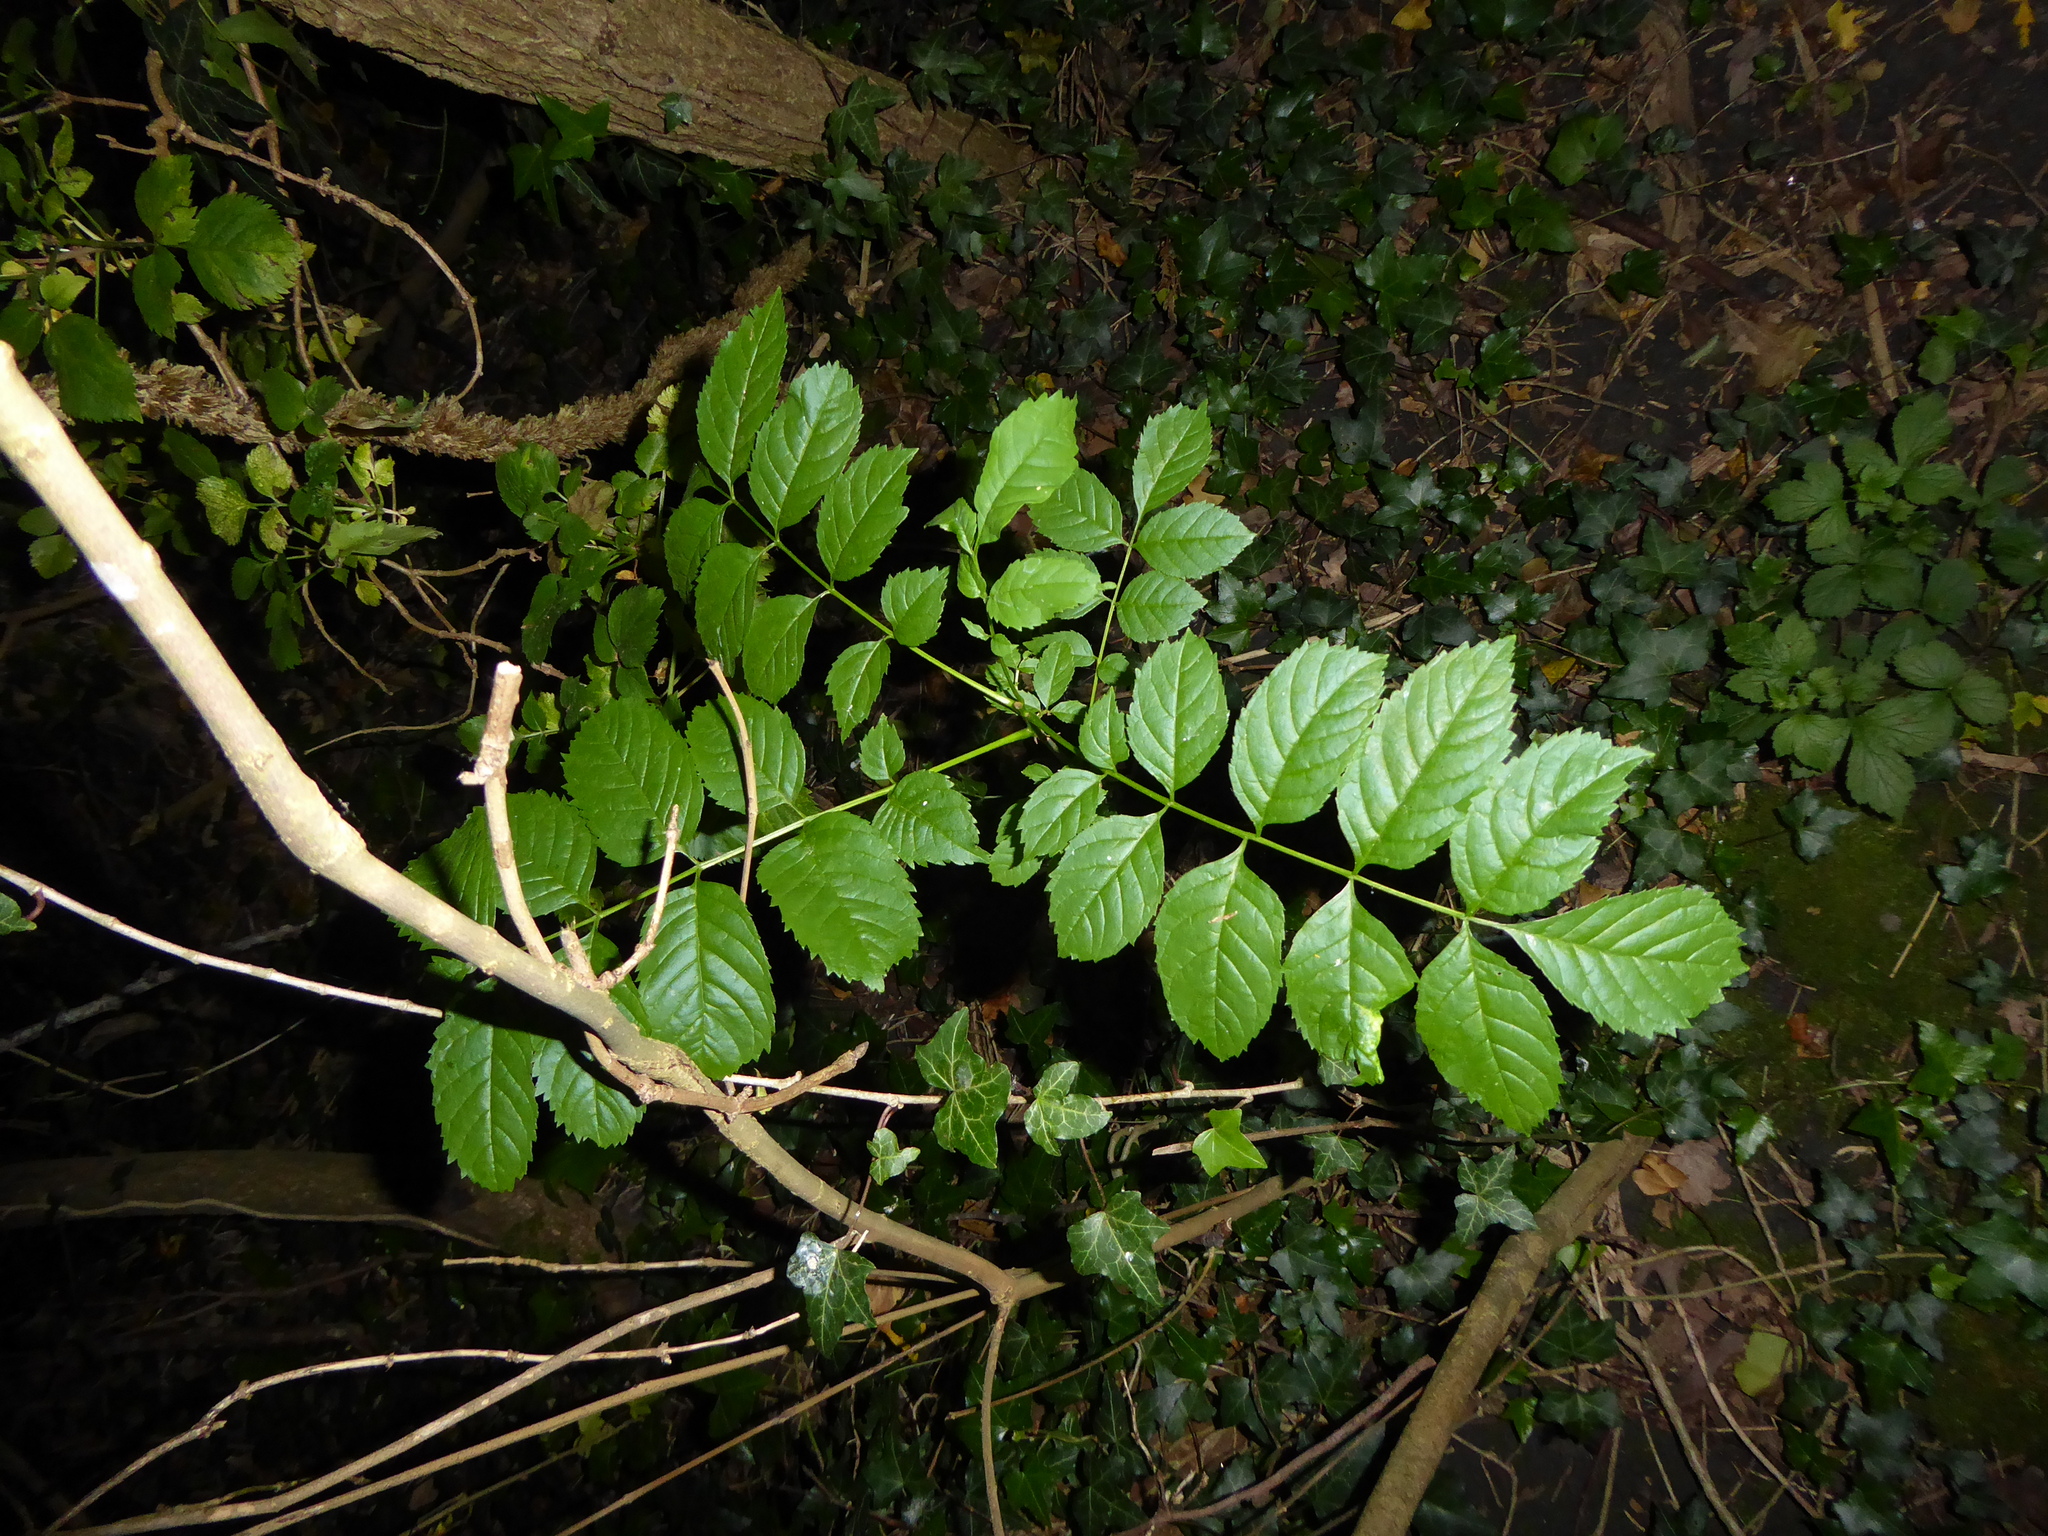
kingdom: Plantae
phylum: Tracheophyta
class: Magnoliopsida
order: Lamiales
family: Oleaceae
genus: Fraxinus
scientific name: Fraxinus excelsior
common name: European ash
